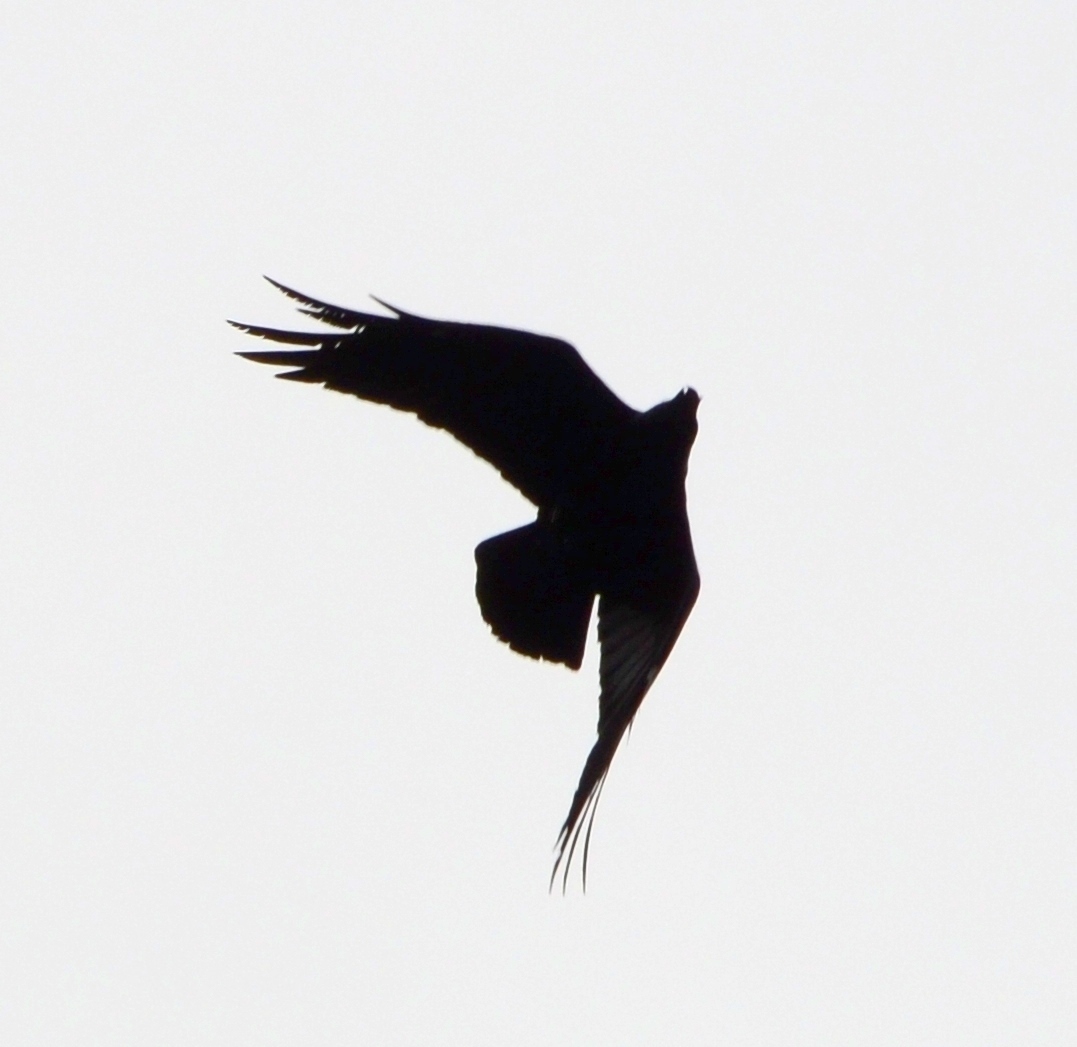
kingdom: Animalia
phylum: Chordata
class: Aves
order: Passeriformes
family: Corvidae
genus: Corvus
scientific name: Corvus corax
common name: Common raven
